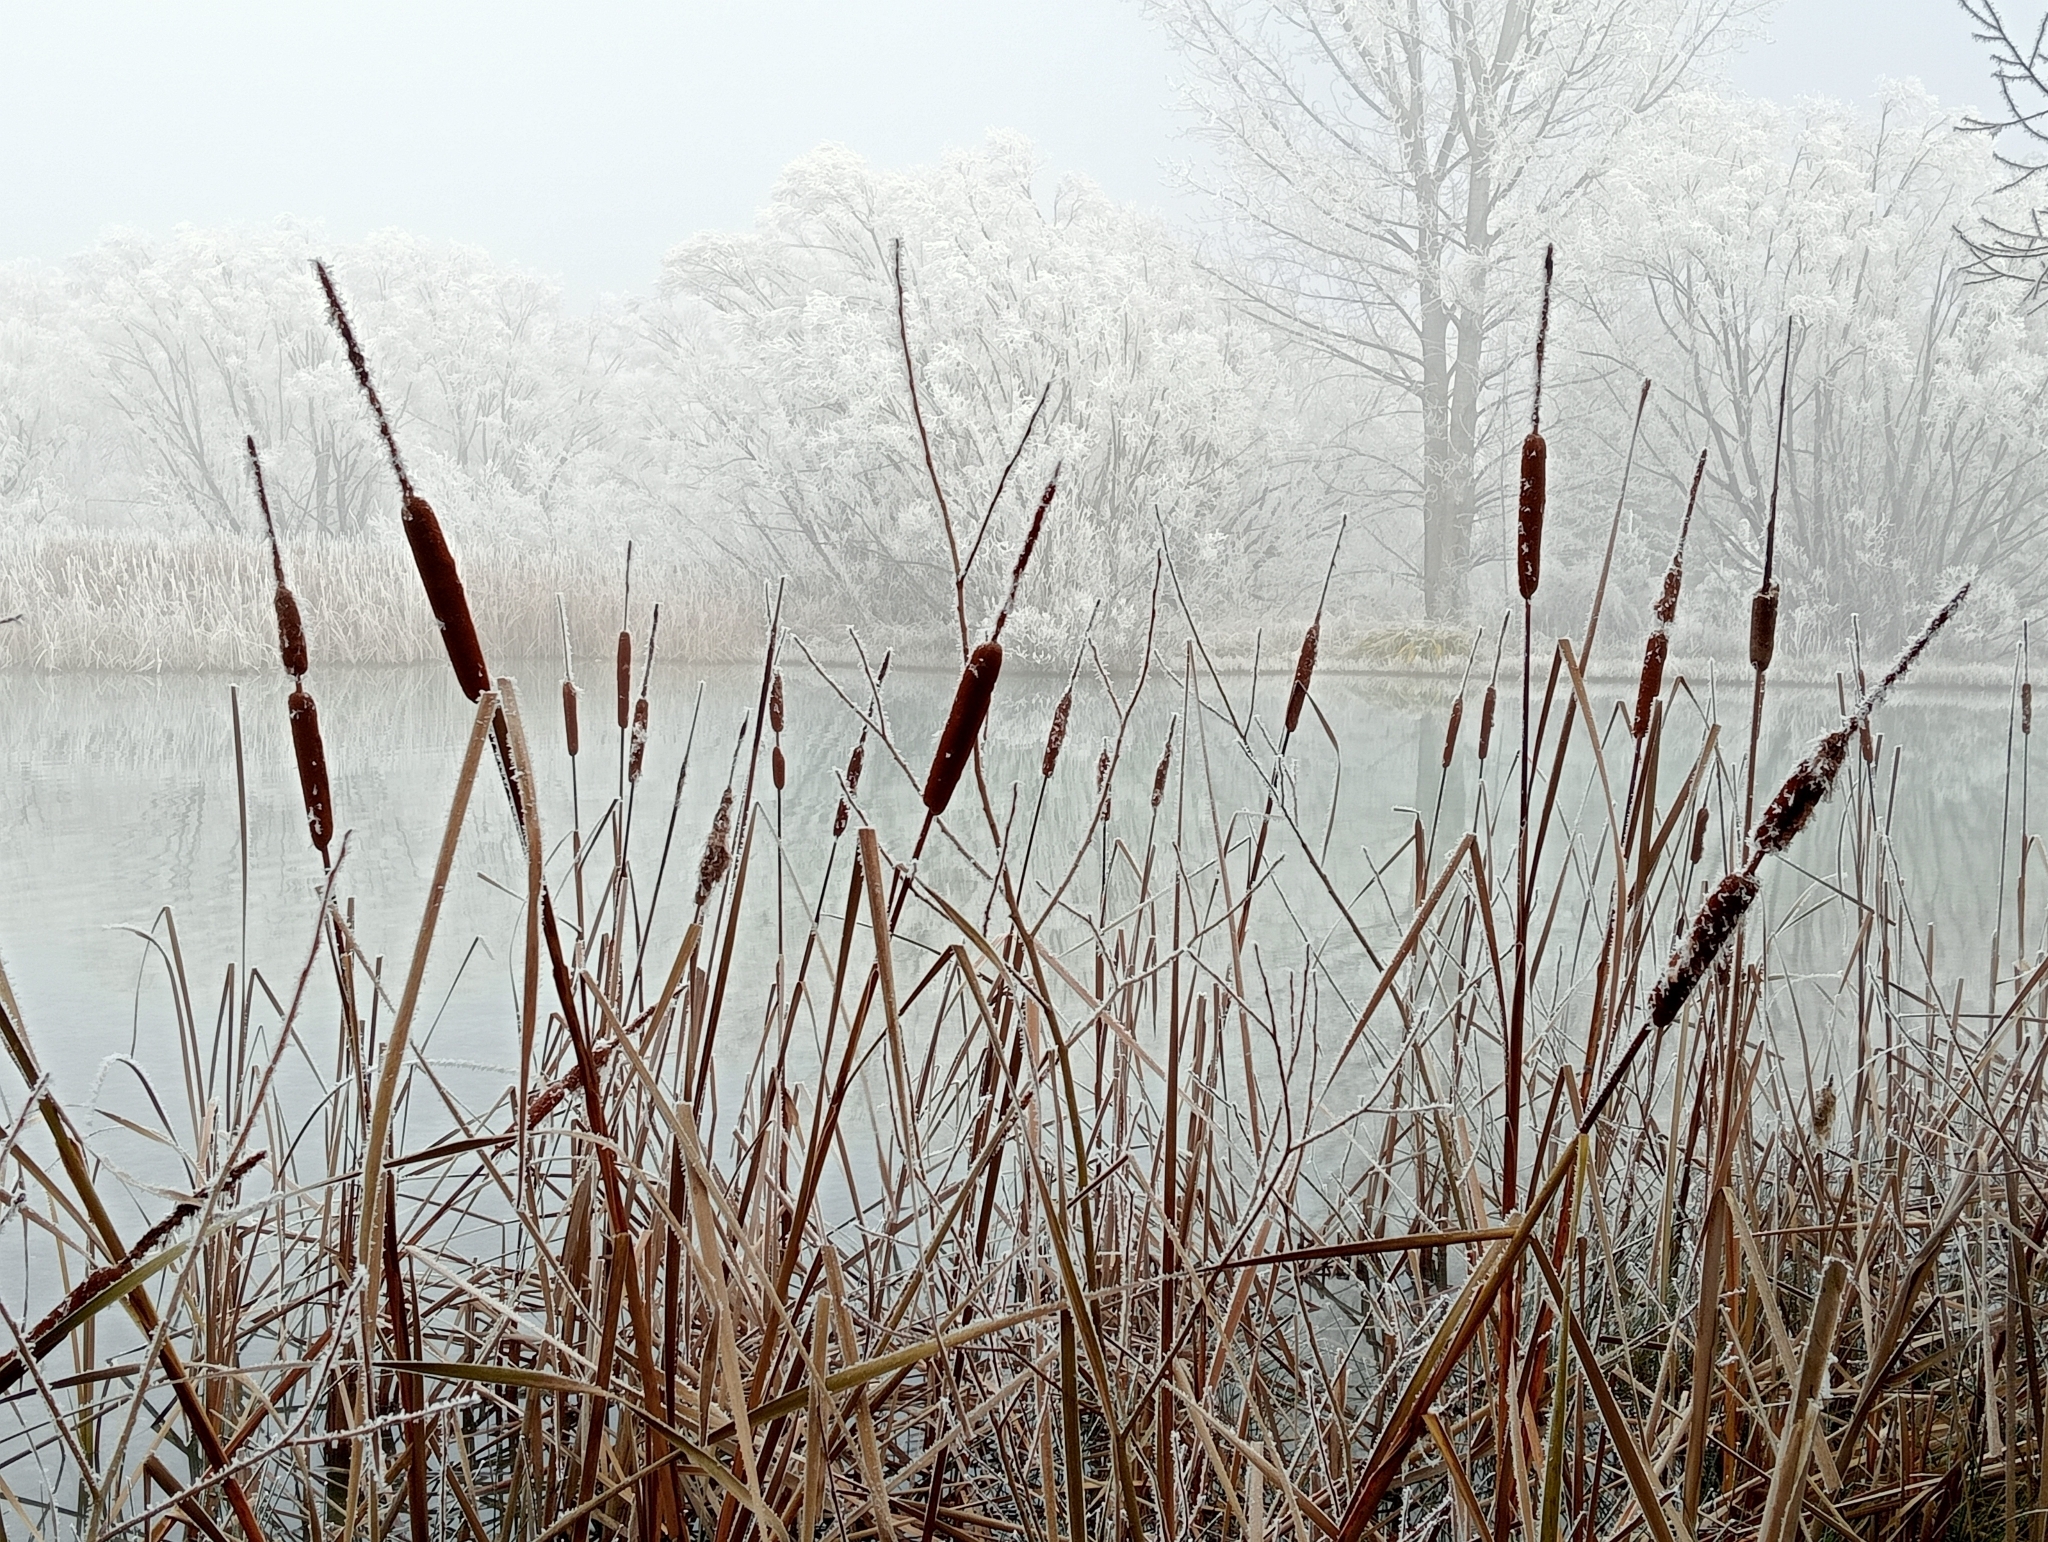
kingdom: Plantae
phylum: Tracheophyta
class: Liliopsida
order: Poales
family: Typhaceae
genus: Typha
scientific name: Typha orientalis
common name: Bullrush
